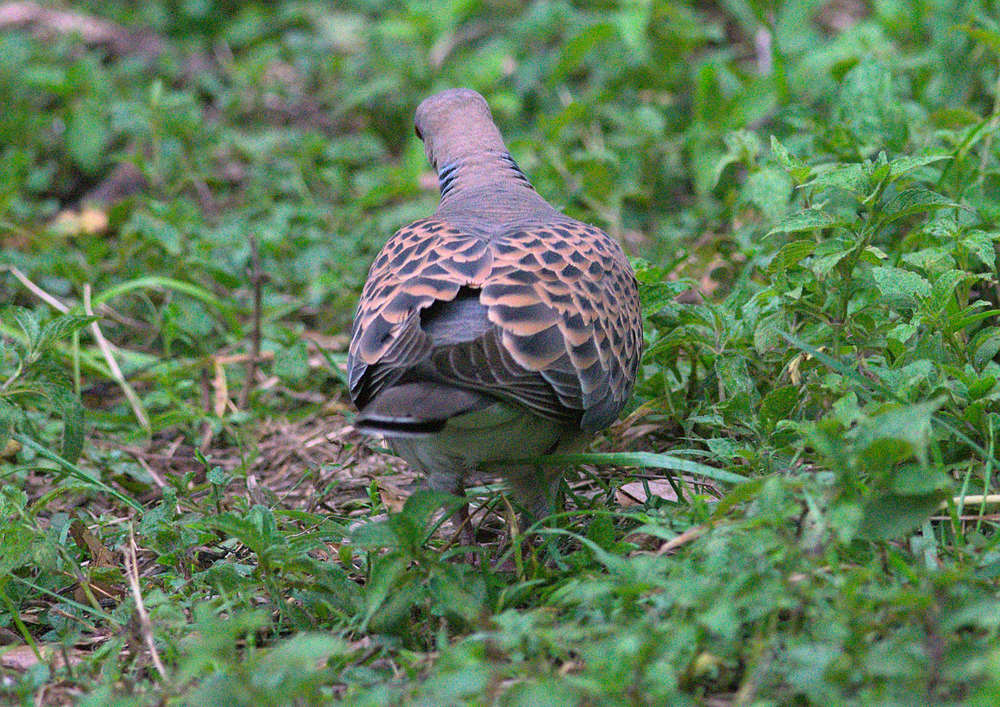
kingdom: Animalia
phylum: Chordata
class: Aves
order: Columbiformes
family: Columbidae
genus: Streptopelia
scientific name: Streptopelia orientalis
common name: Oriental turtle dove
